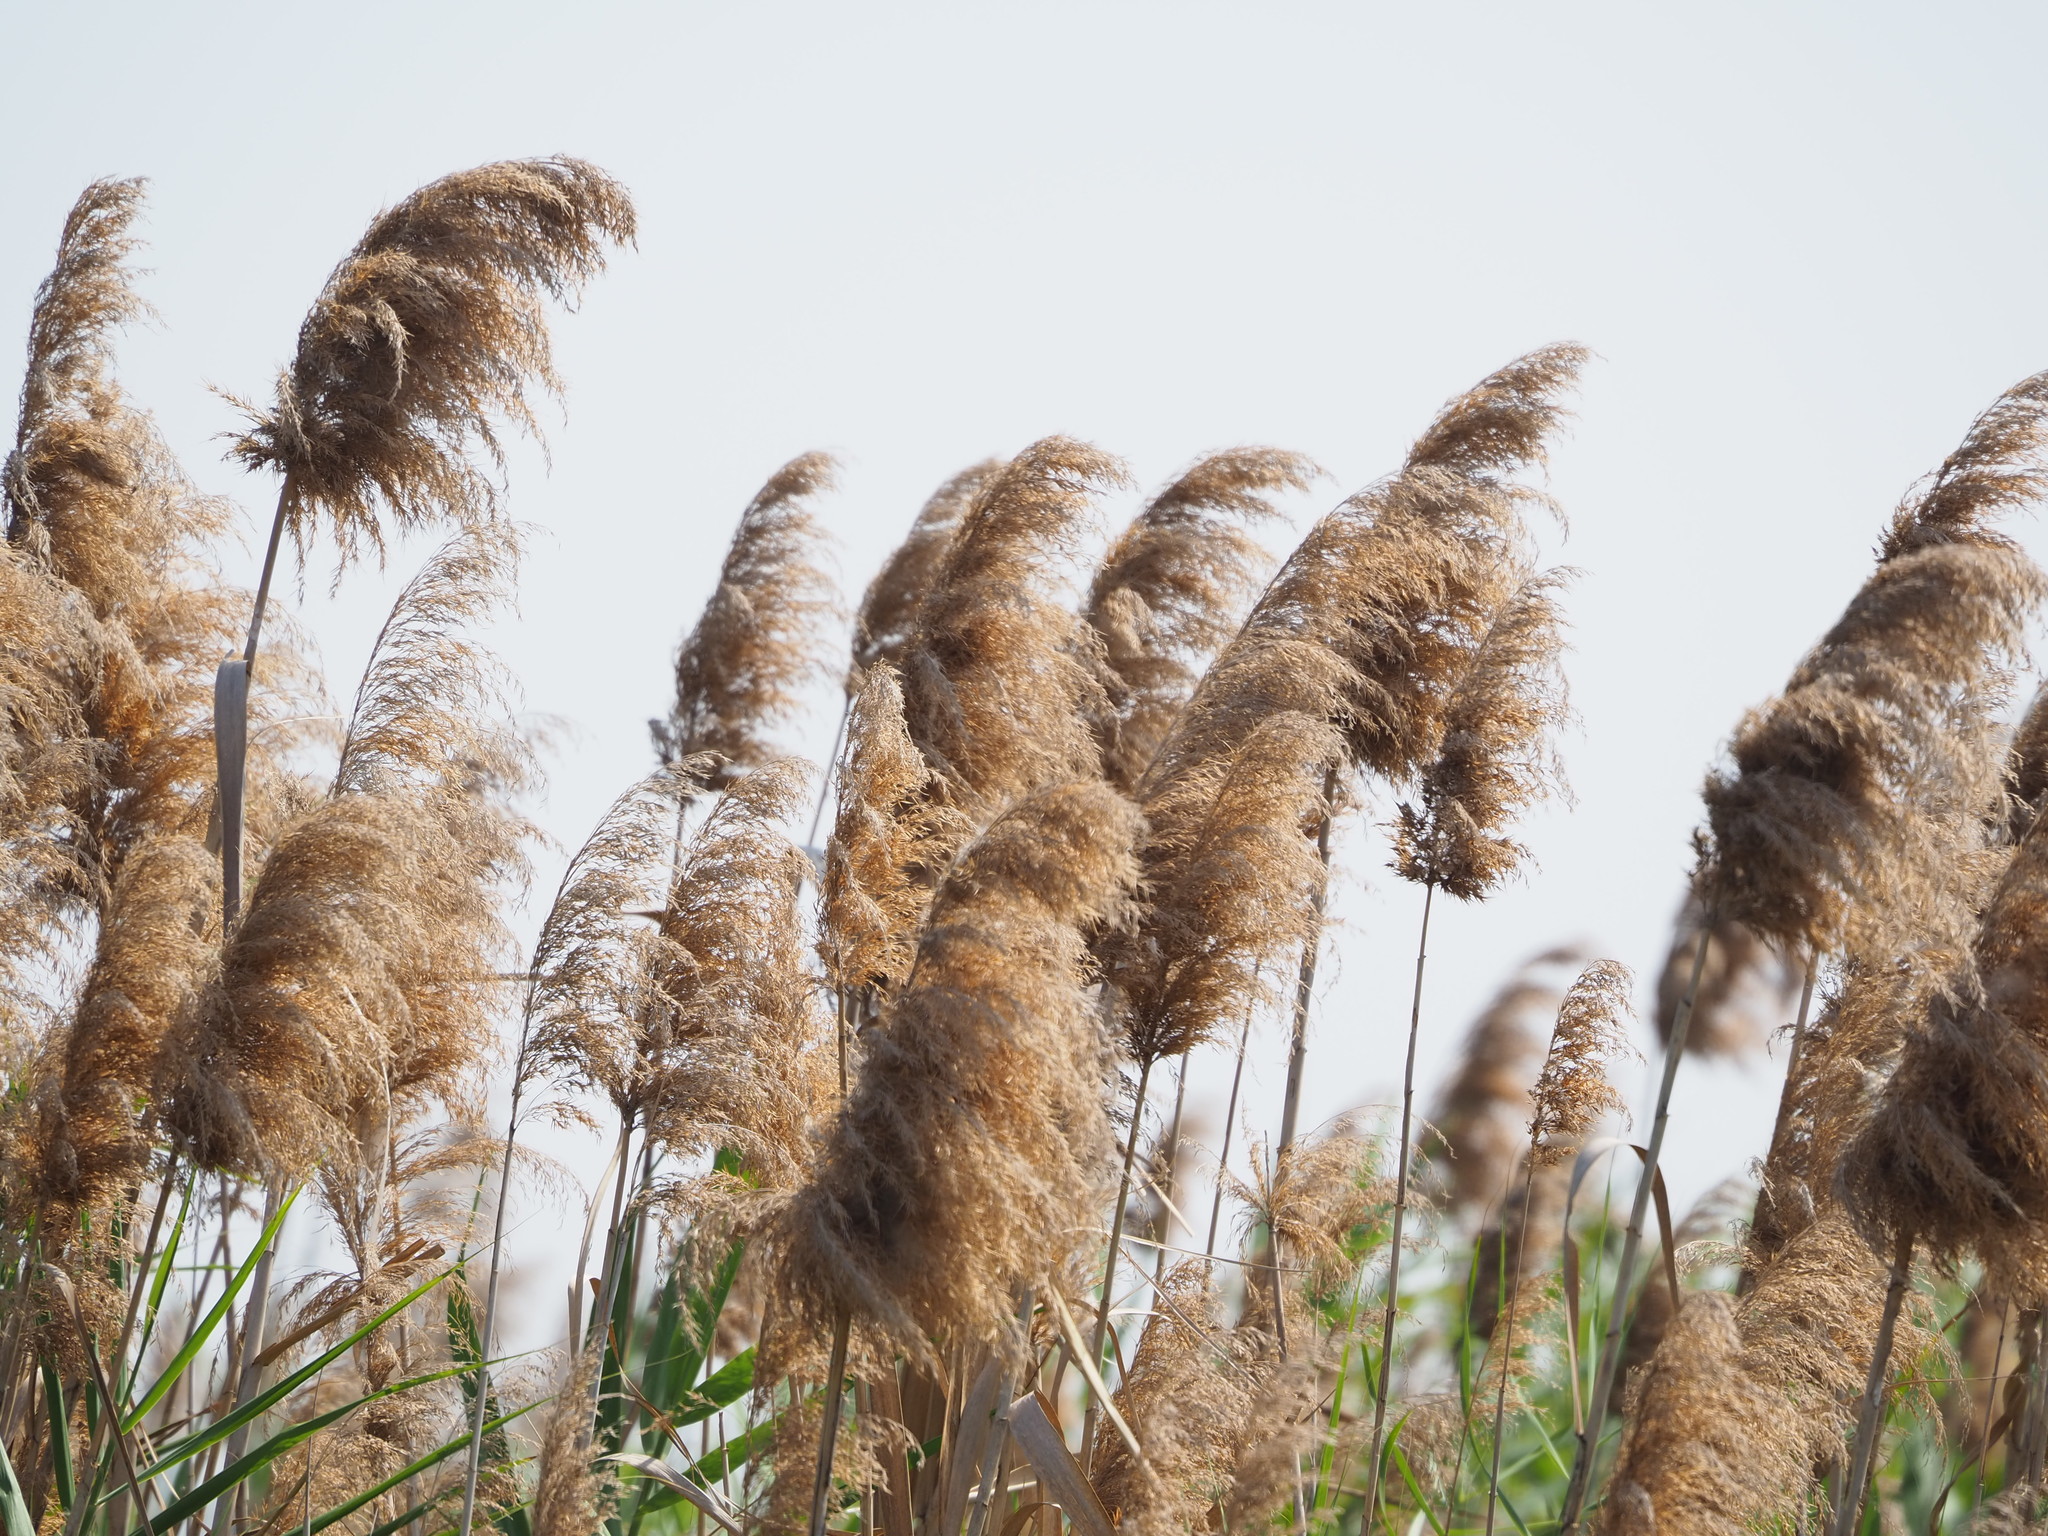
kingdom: Plantae
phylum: Tracheophyta
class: Liliopsida
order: Poales
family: Poaceae
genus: Phragmites
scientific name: Phragmites australis
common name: Common reed
